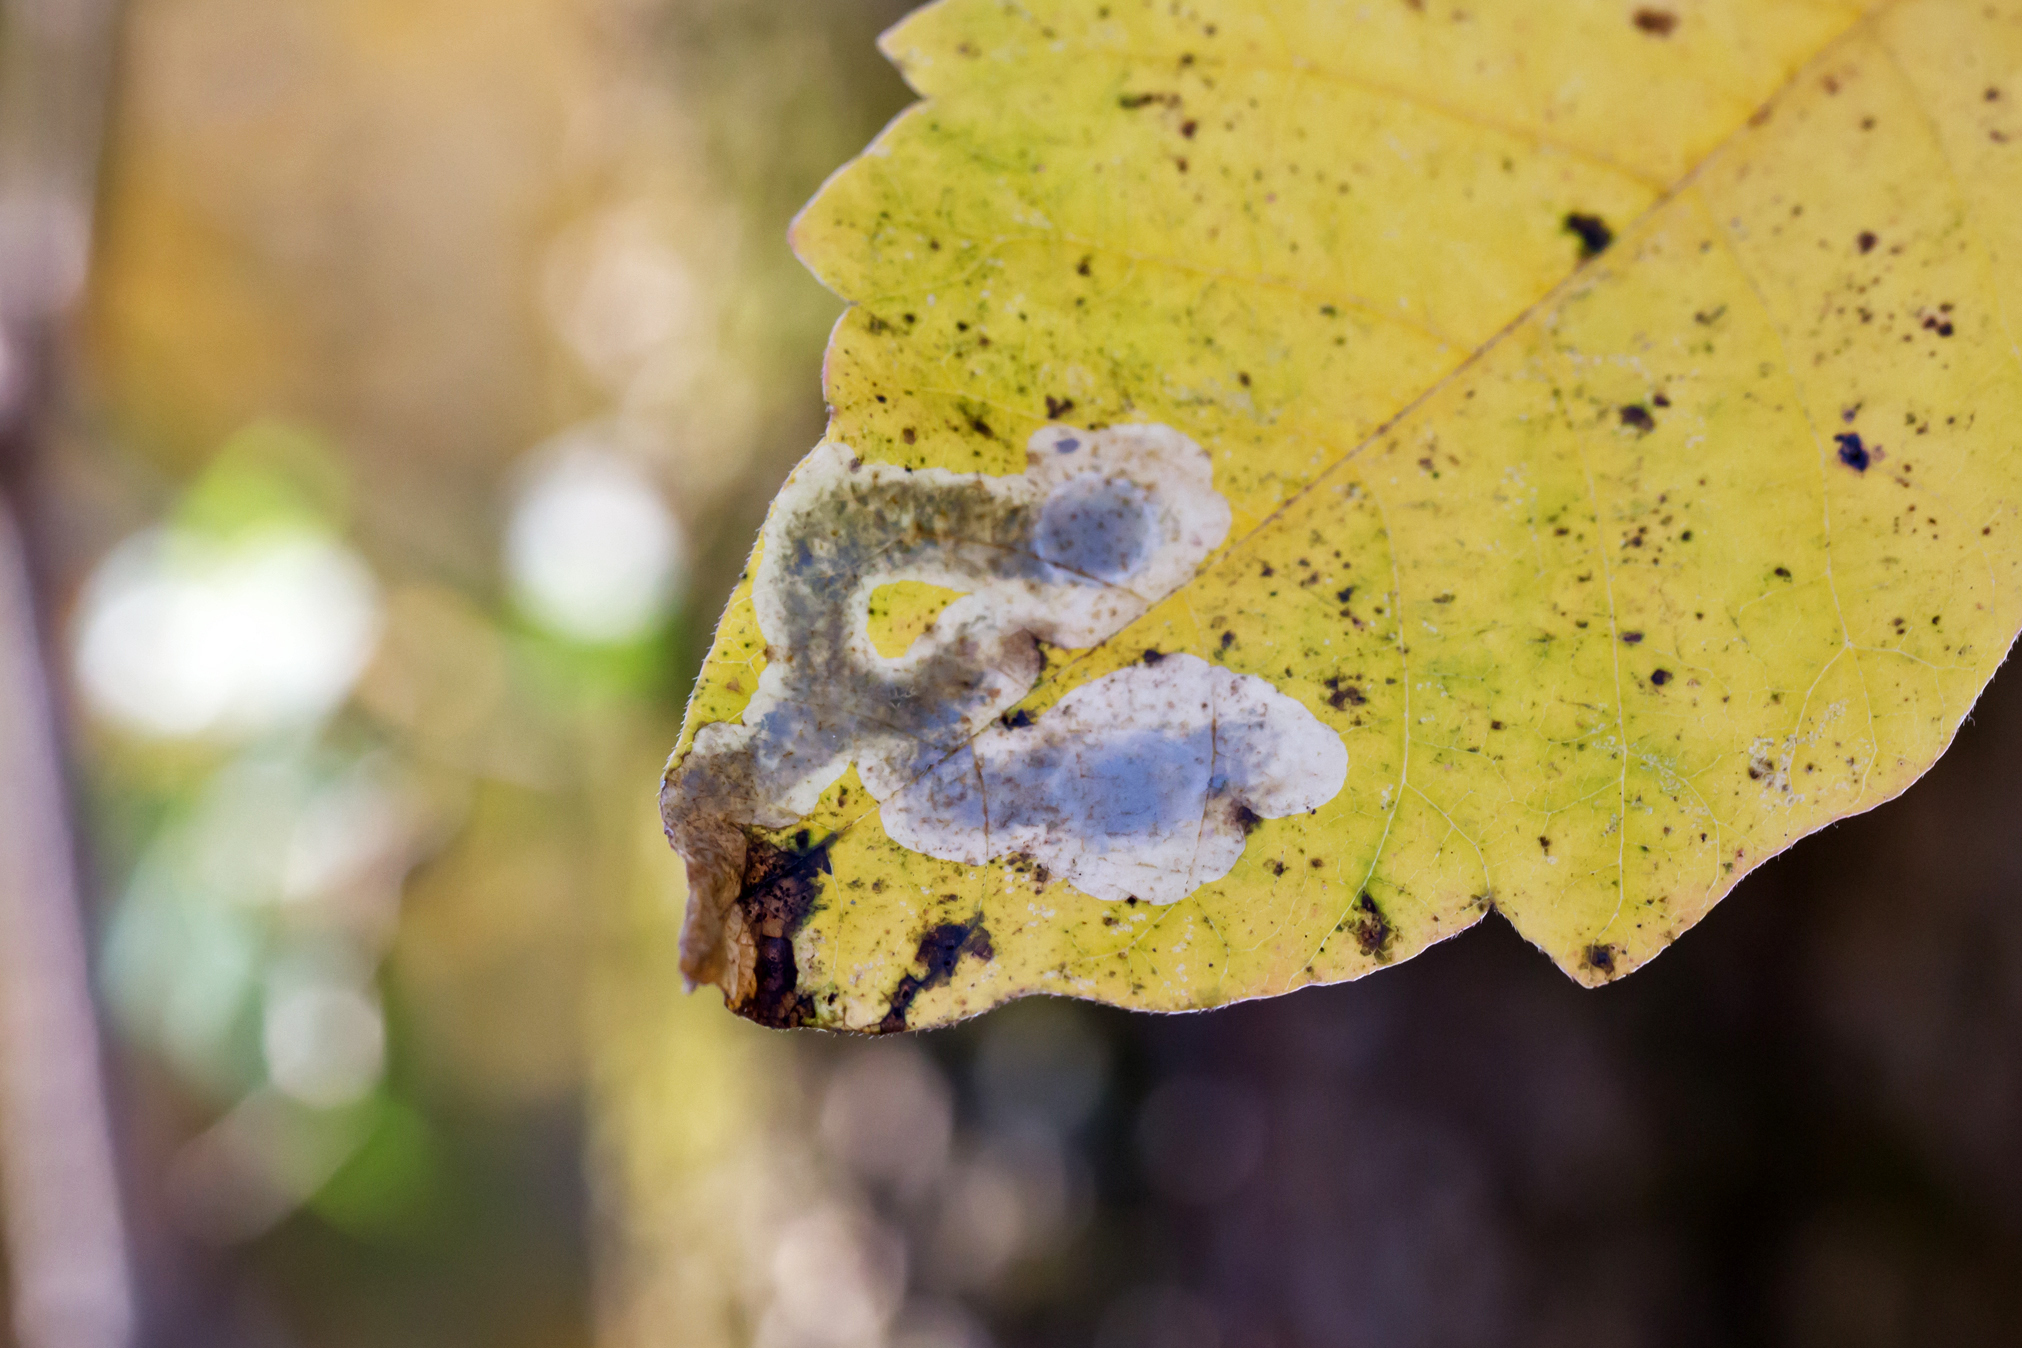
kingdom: Animalia
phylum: Arthropoda
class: Insecta
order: Lepidoptera
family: Gracillariidae
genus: Cameraria
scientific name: Cameraria guttifinitella
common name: Poison ivy leaf-miner moth
